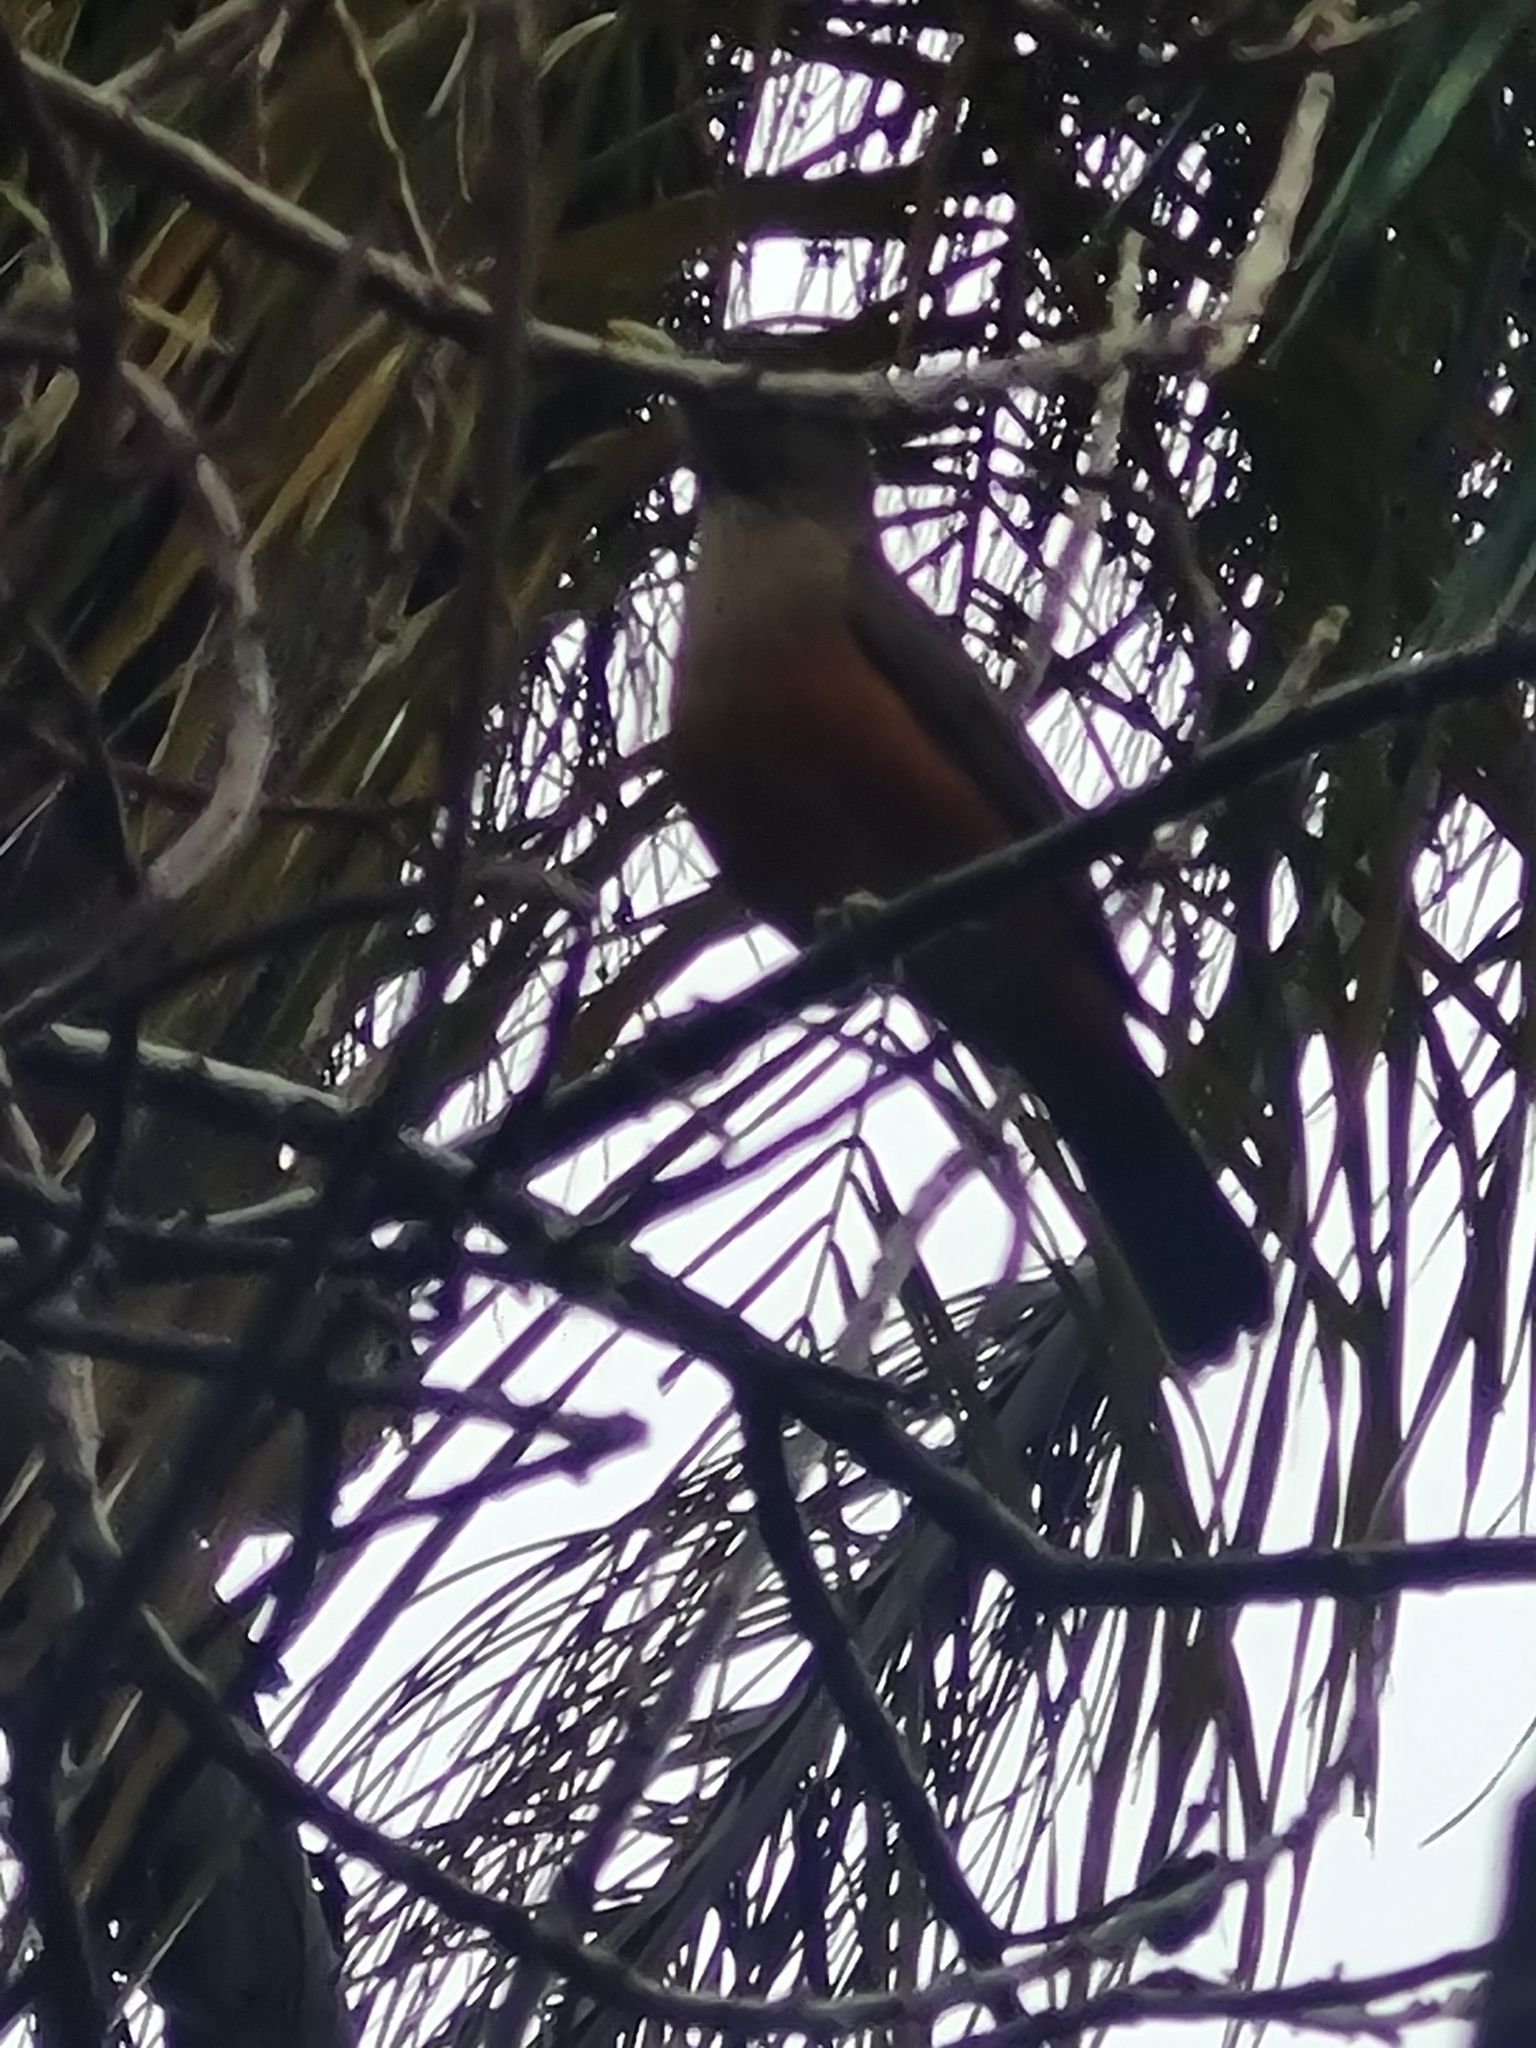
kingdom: Animalia
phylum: Chordata
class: Aves
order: Passeriformes
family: Turdidae
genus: Turdus
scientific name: Turdus rufiventris
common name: Rufous-bellied thrush
